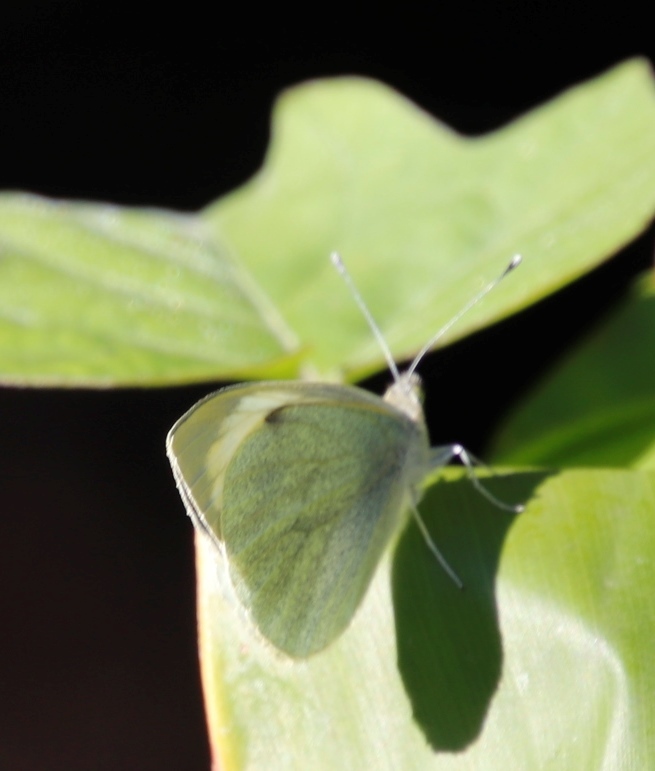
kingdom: Animalia
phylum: Arthropoda
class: Insecta
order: Lepidoptera
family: Pieridae
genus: Pieris
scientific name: Pieris brassicae
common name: Large white
